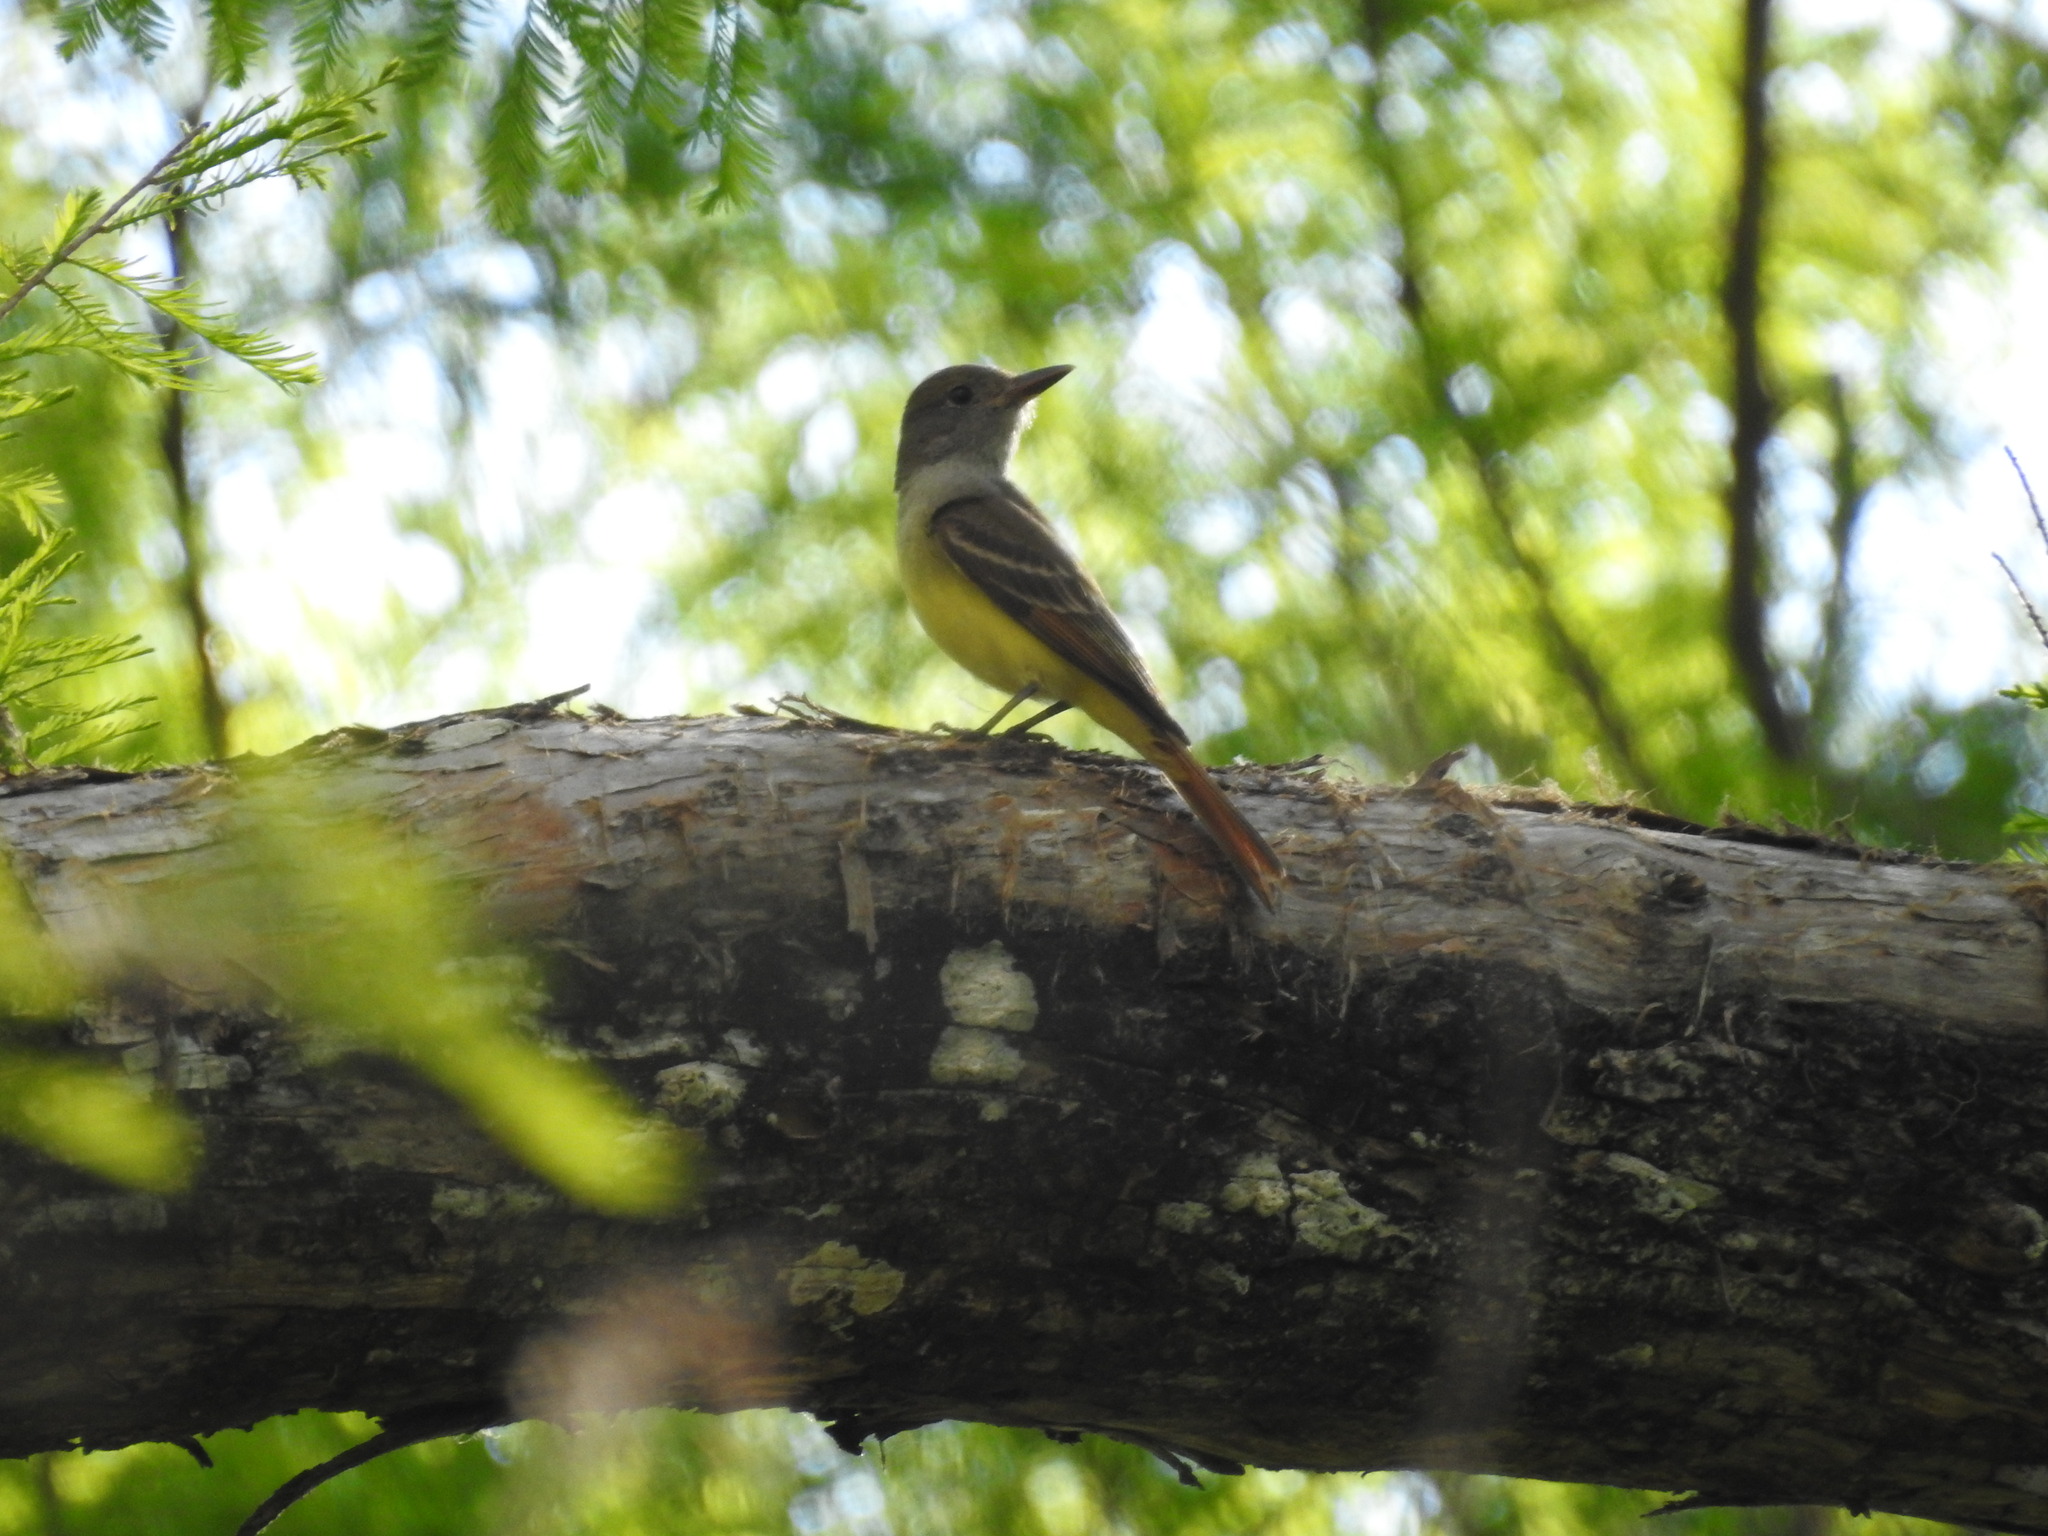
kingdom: Animalia
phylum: Chordata
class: Aves
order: Passeriformes
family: Tyrannidae
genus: Myiarchus
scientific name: Myiarchus crinitus
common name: Great crested flycatcher
